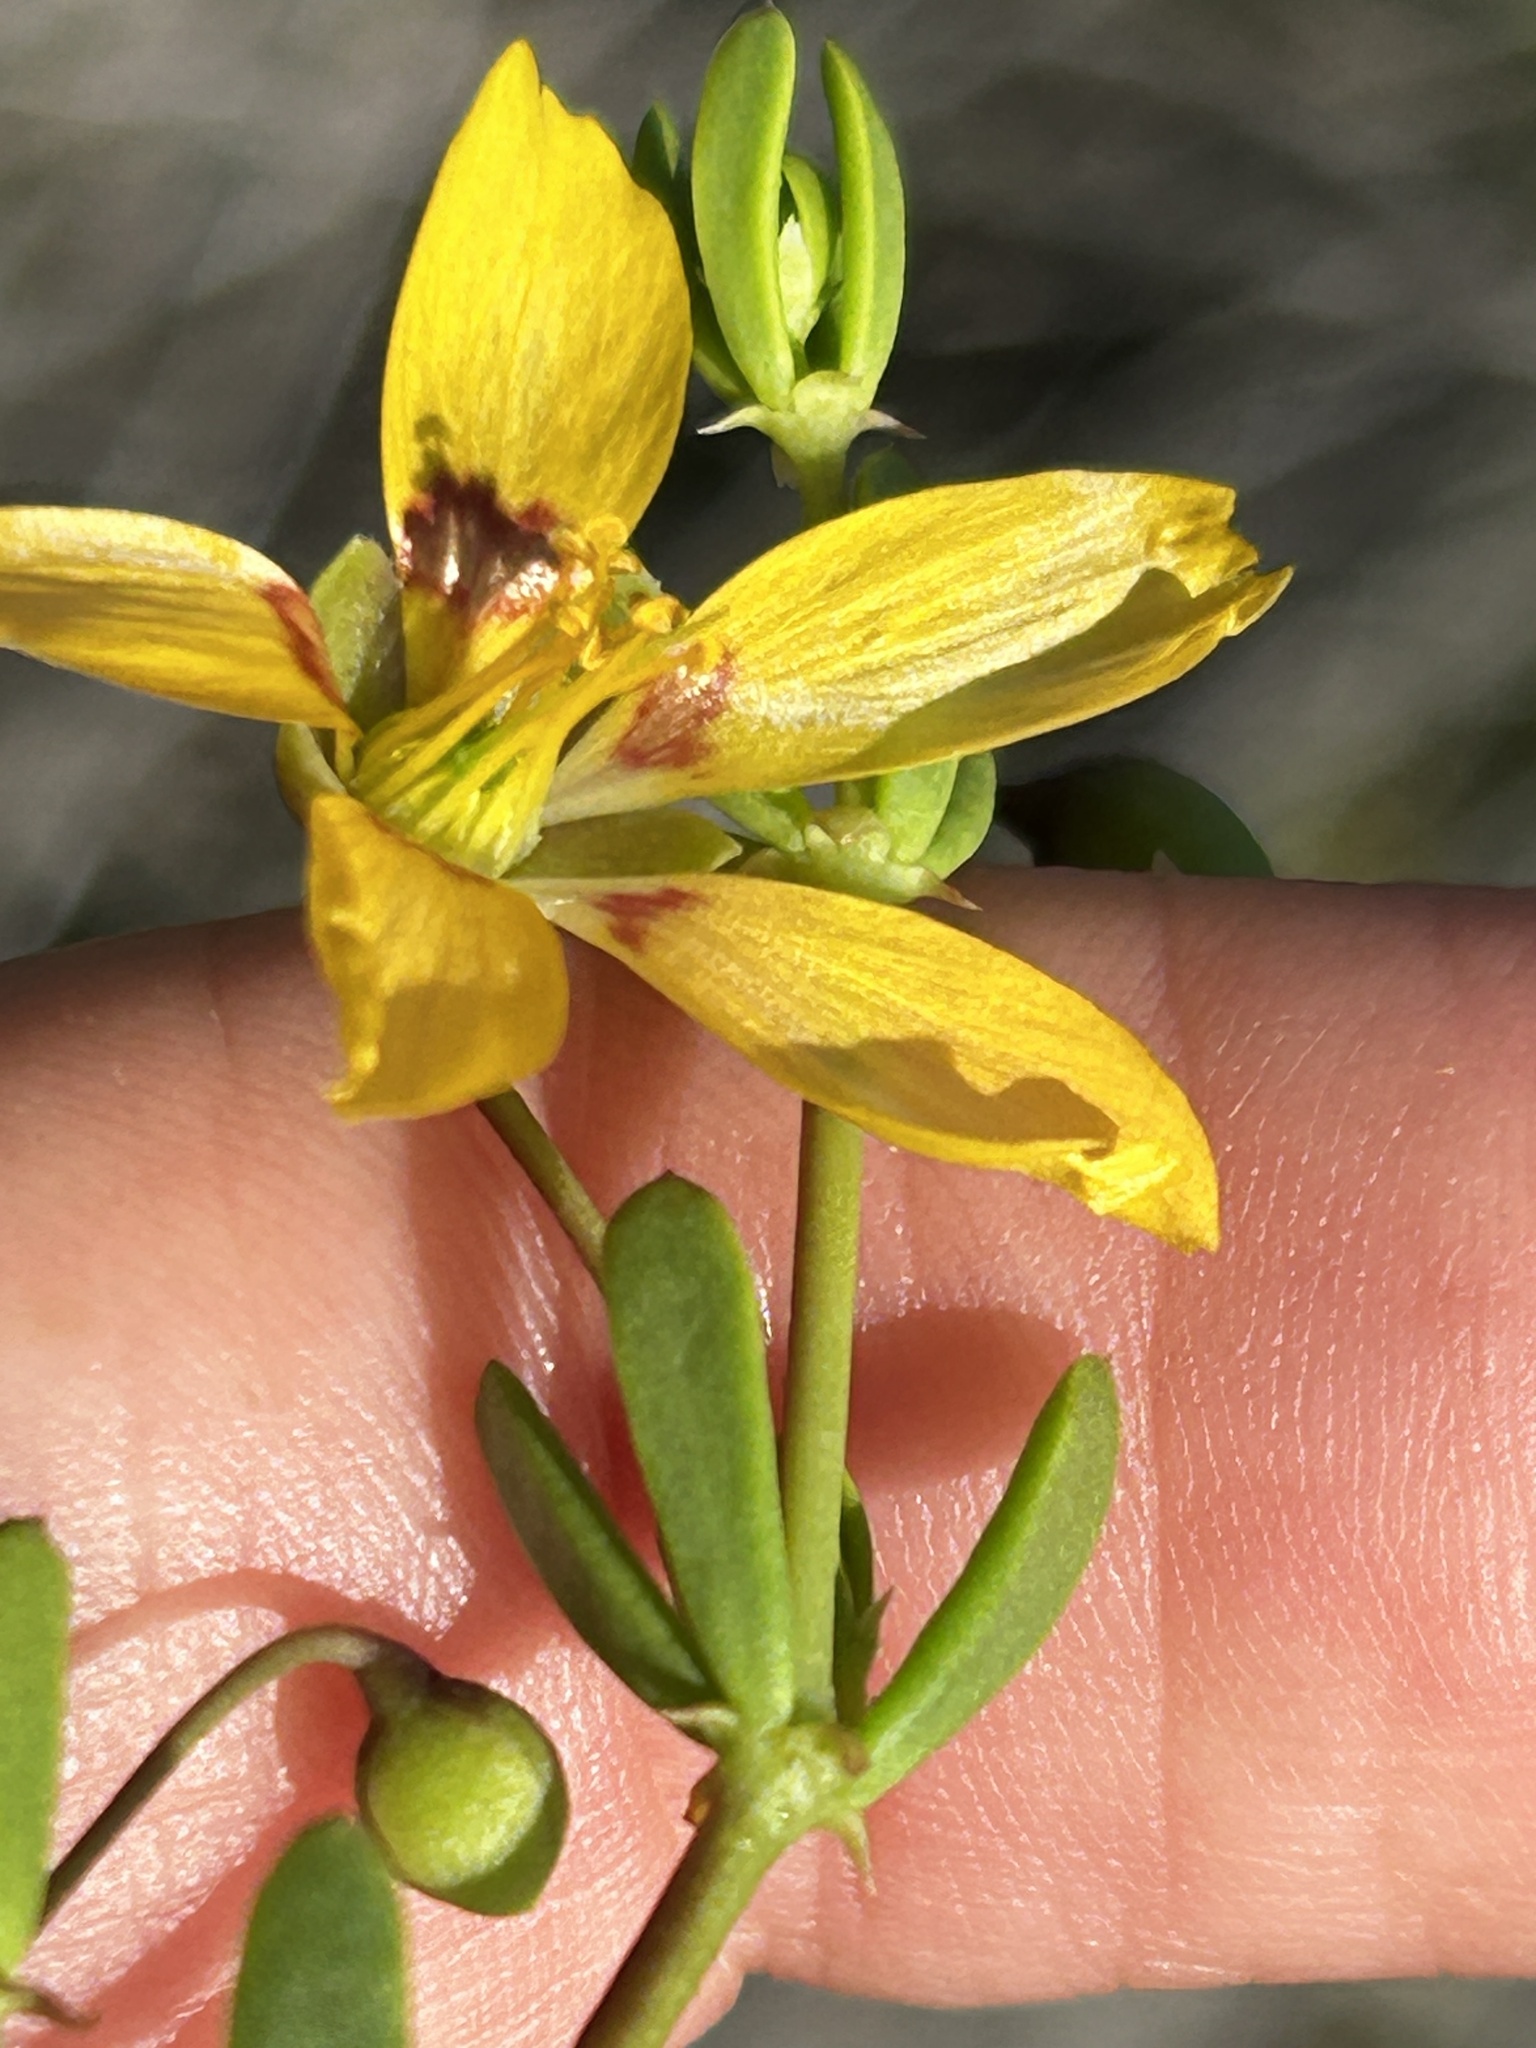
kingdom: Plantae
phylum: Tracheophyta
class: Magnoliopsida
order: Zygophyllales
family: Zygophyllaceae
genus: Roepera
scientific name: Roepera flexuosa
